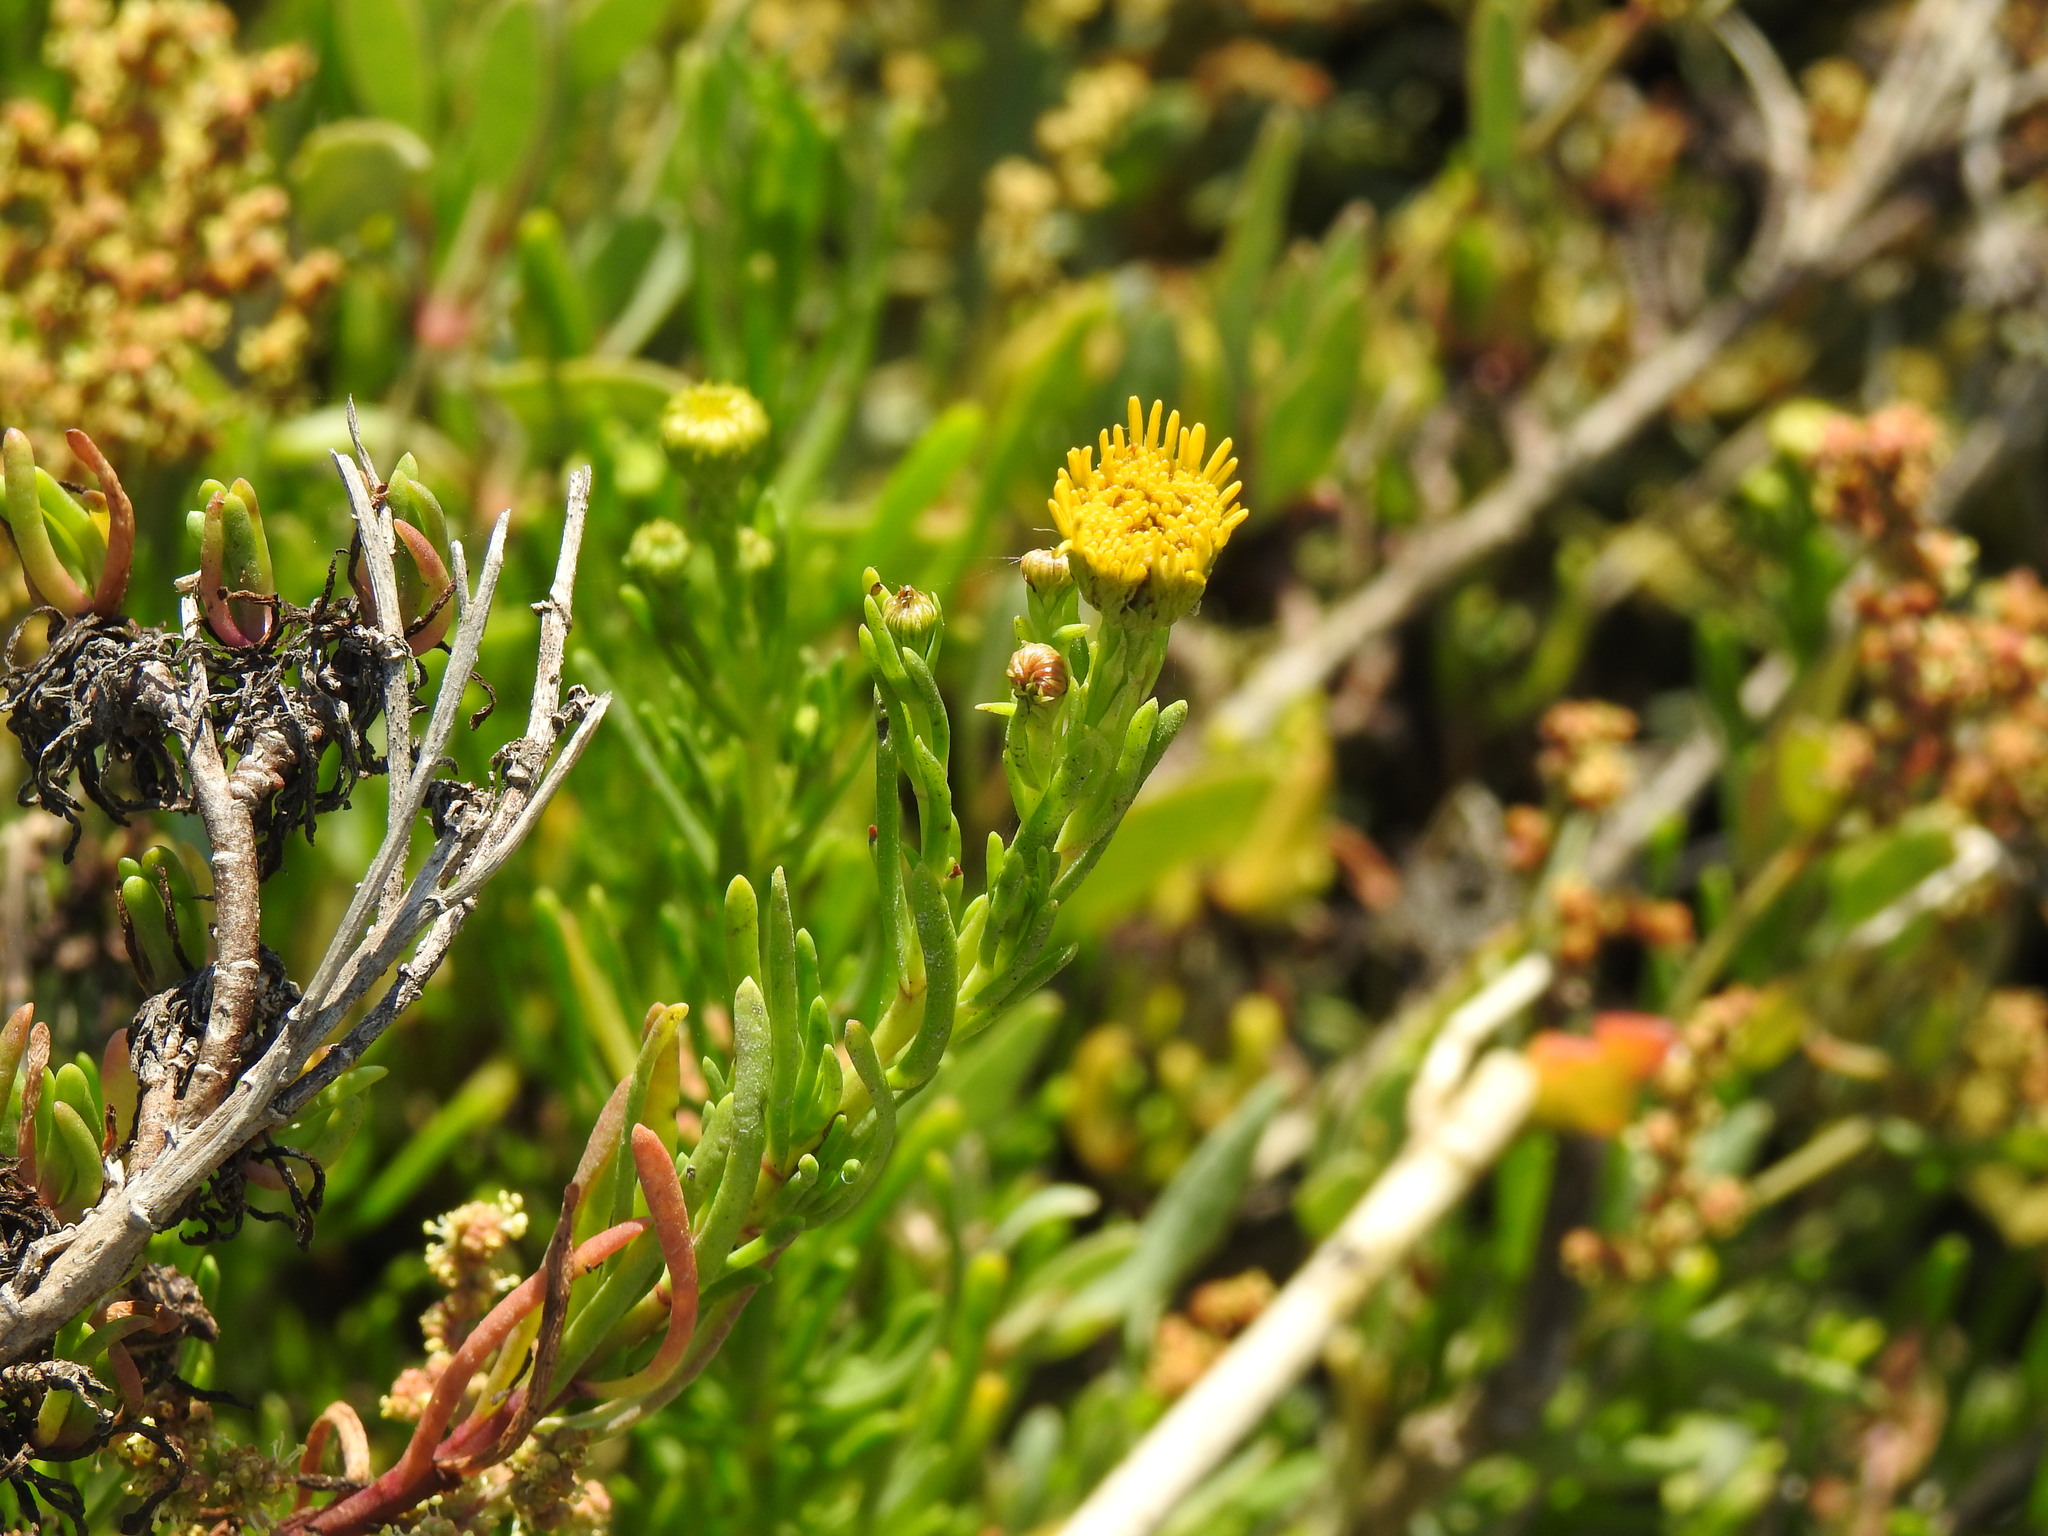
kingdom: Plantae
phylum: Tracheophyta
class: Magnoliopsida
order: Asterales
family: Asteraceae
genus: Limbarda
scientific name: Limbarda crithmoides
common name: Golden samphire
